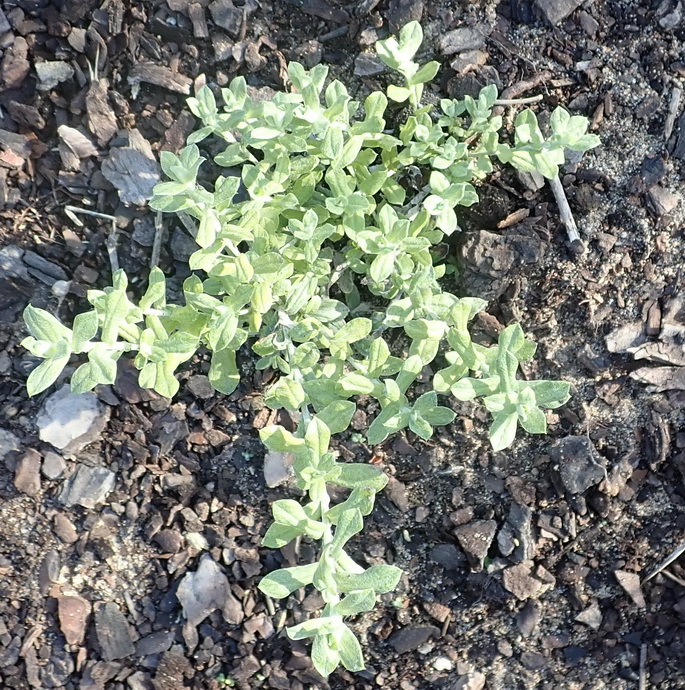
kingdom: Plantae
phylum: Tracheophyta
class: Magnoliopsida
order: Asterales
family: Asteraceae
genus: Helichrysum
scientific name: Helichrysum cymosum
